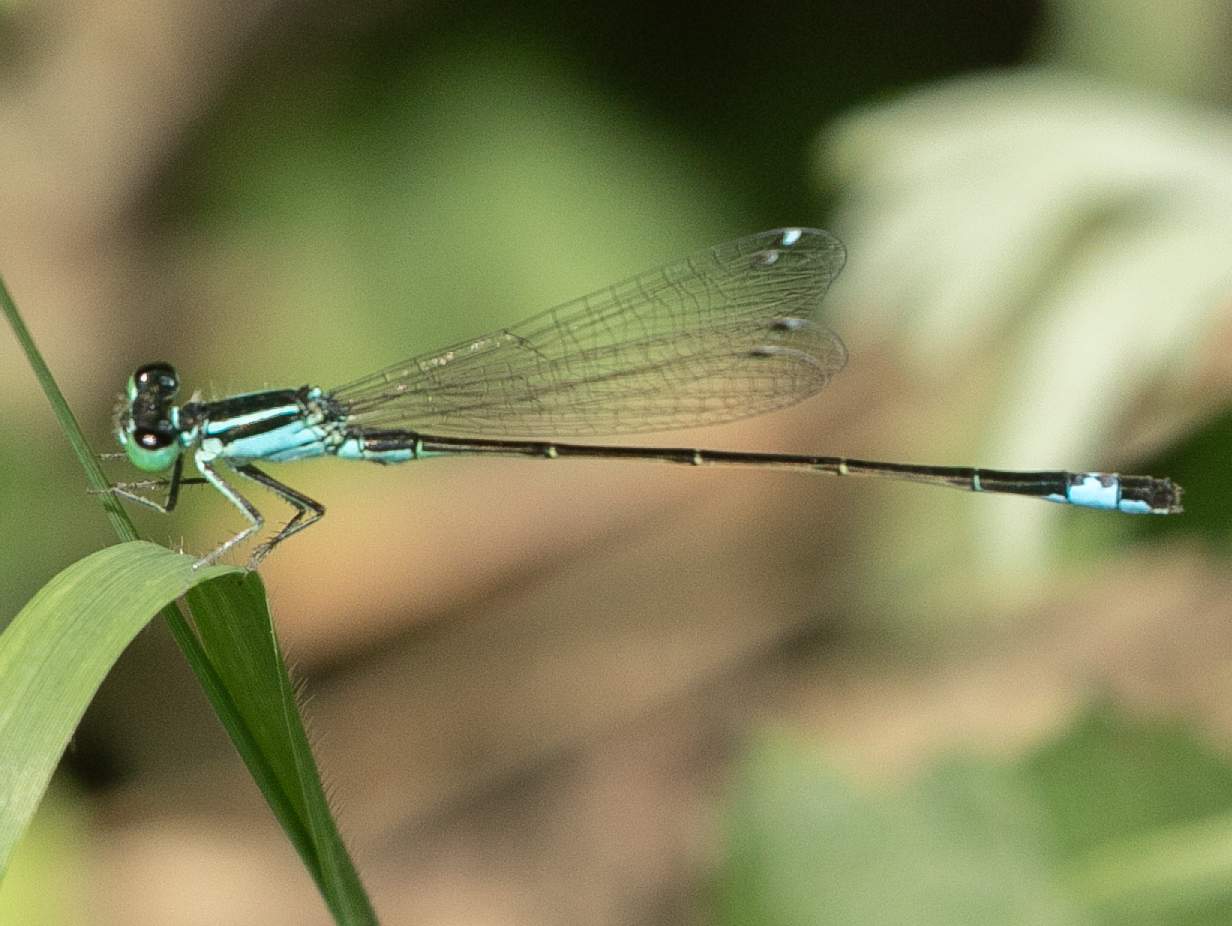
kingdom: Animalia
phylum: Arthropoda
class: Insecta
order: Odonata
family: Coenagrionidae
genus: Ischnura
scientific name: Ischnura elegans
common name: Blue-tailed damselfly
